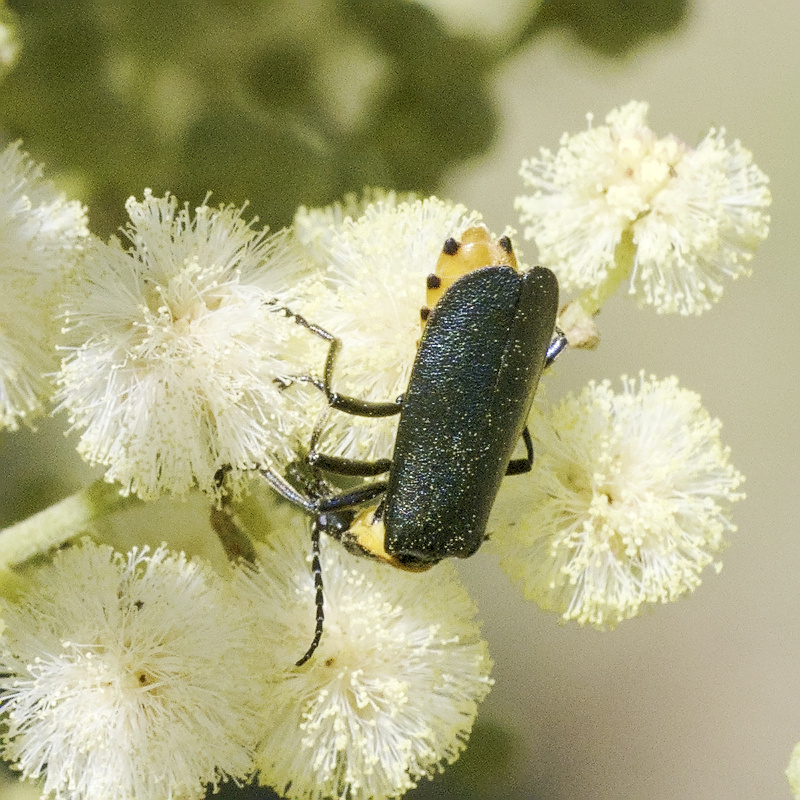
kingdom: Animalia
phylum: Arthropoda
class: Insecta
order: Coleoptera
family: Cantharidae
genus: Chauliognathus
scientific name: Chauliognathus
